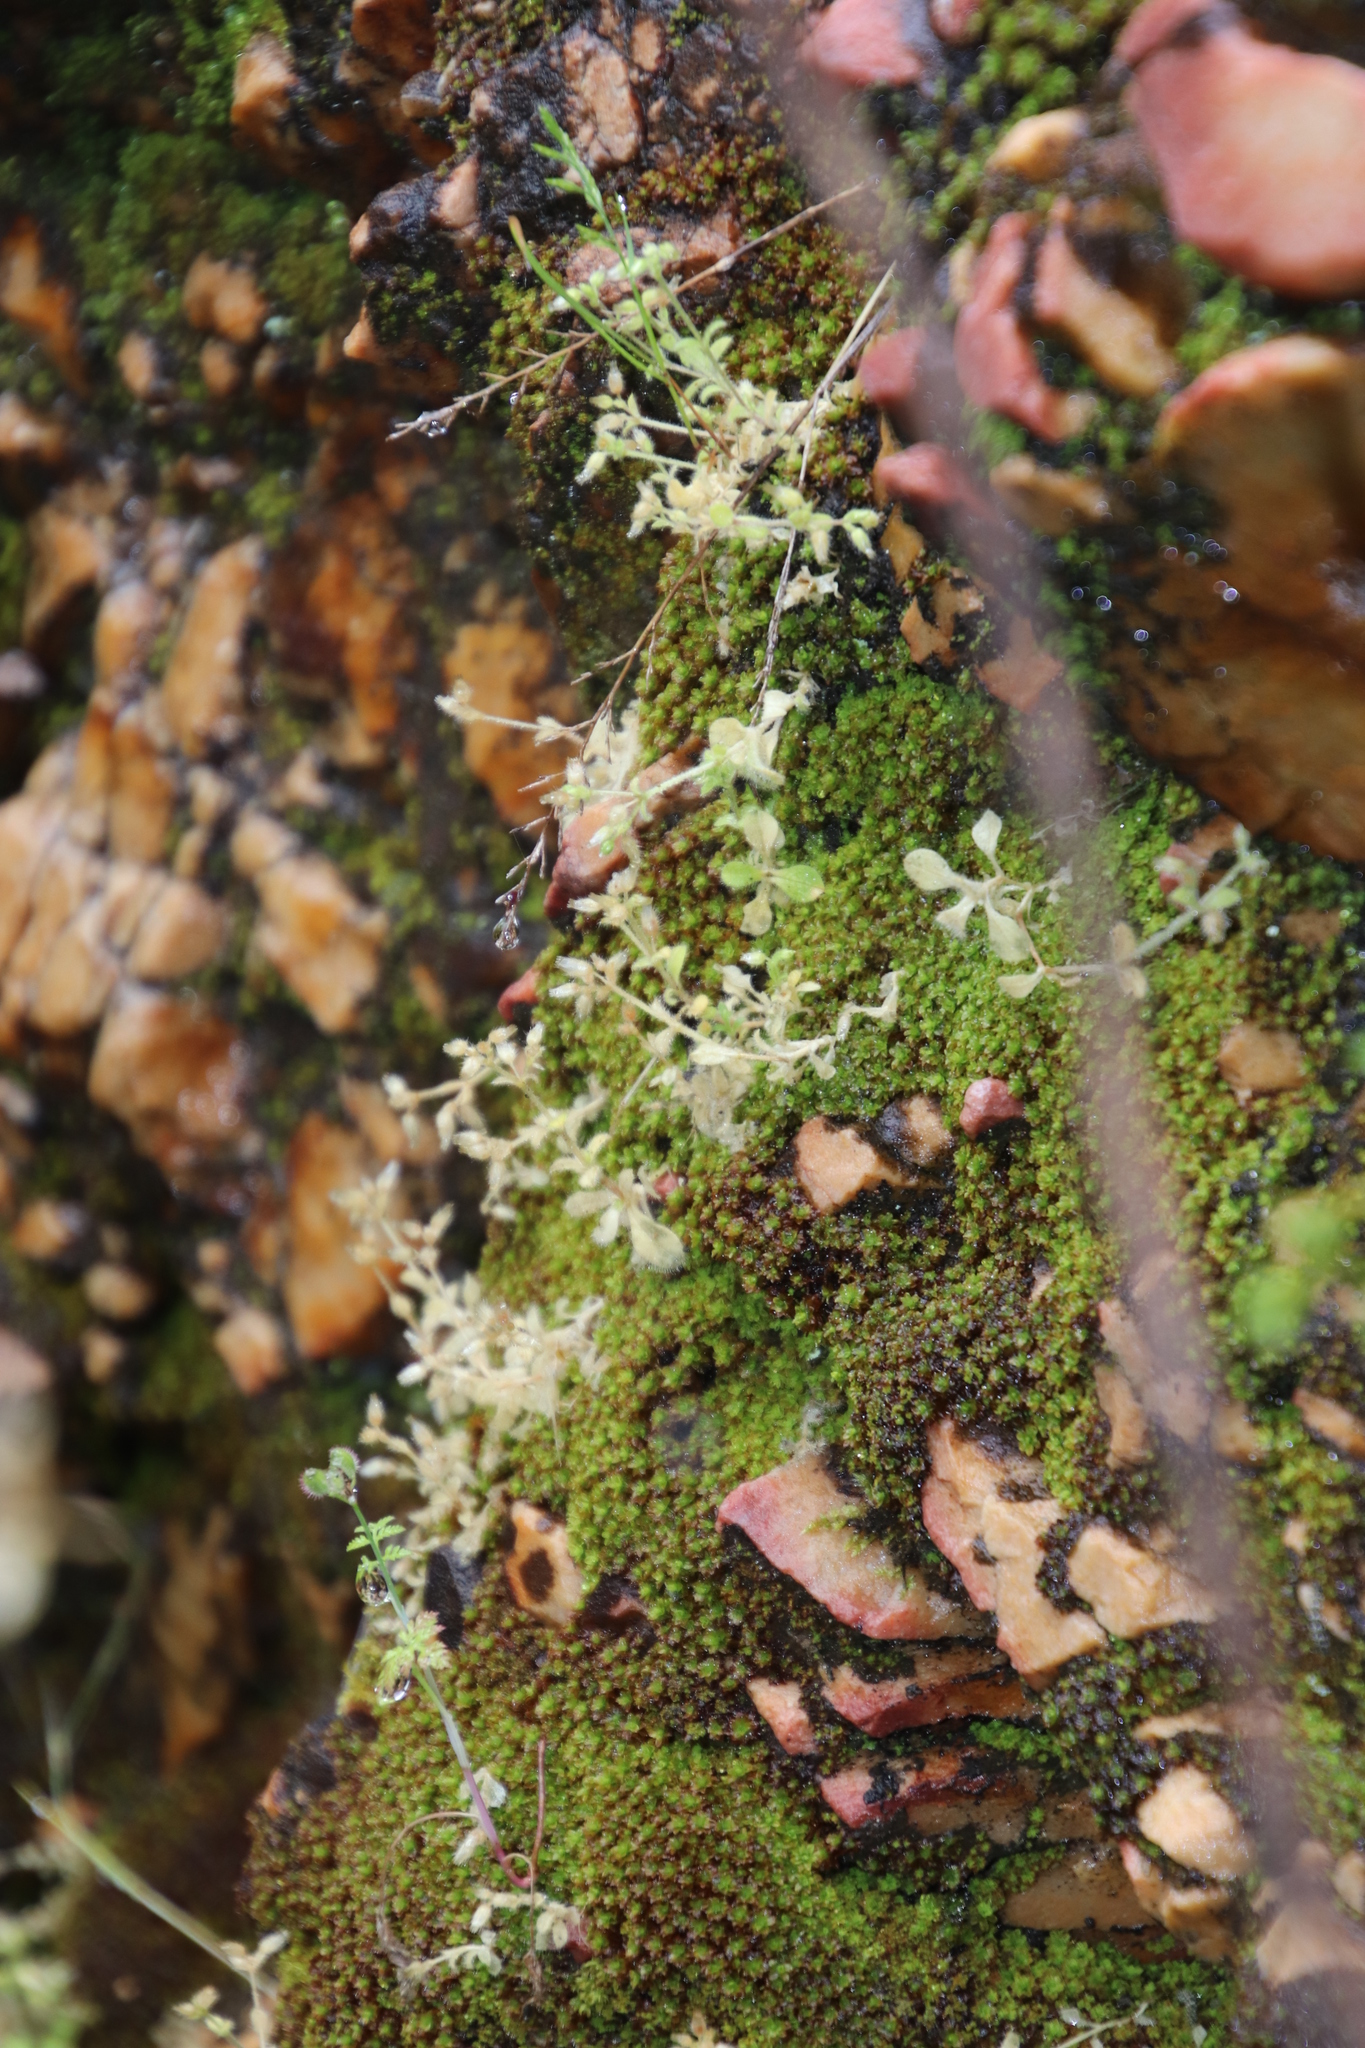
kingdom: Plantae
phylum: Tracheophyta
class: Magnoliopsida
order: Caryophyllales
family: Caryophyllaceae
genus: Cerastium
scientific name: Cerastium capense
